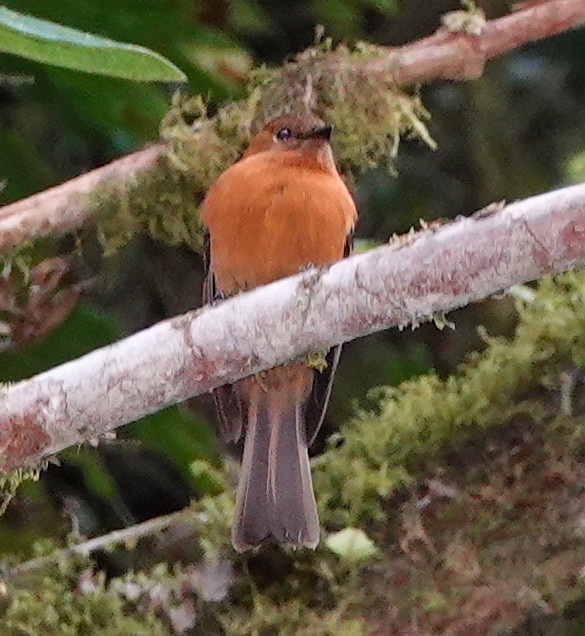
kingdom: Animalia
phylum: Chordata
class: Aves
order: Passeriformes
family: Tyrannidae
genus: Pyrrhomyias
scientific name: Pyrrhomyias cinnamomeus
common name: Cinnamon flycatcher
